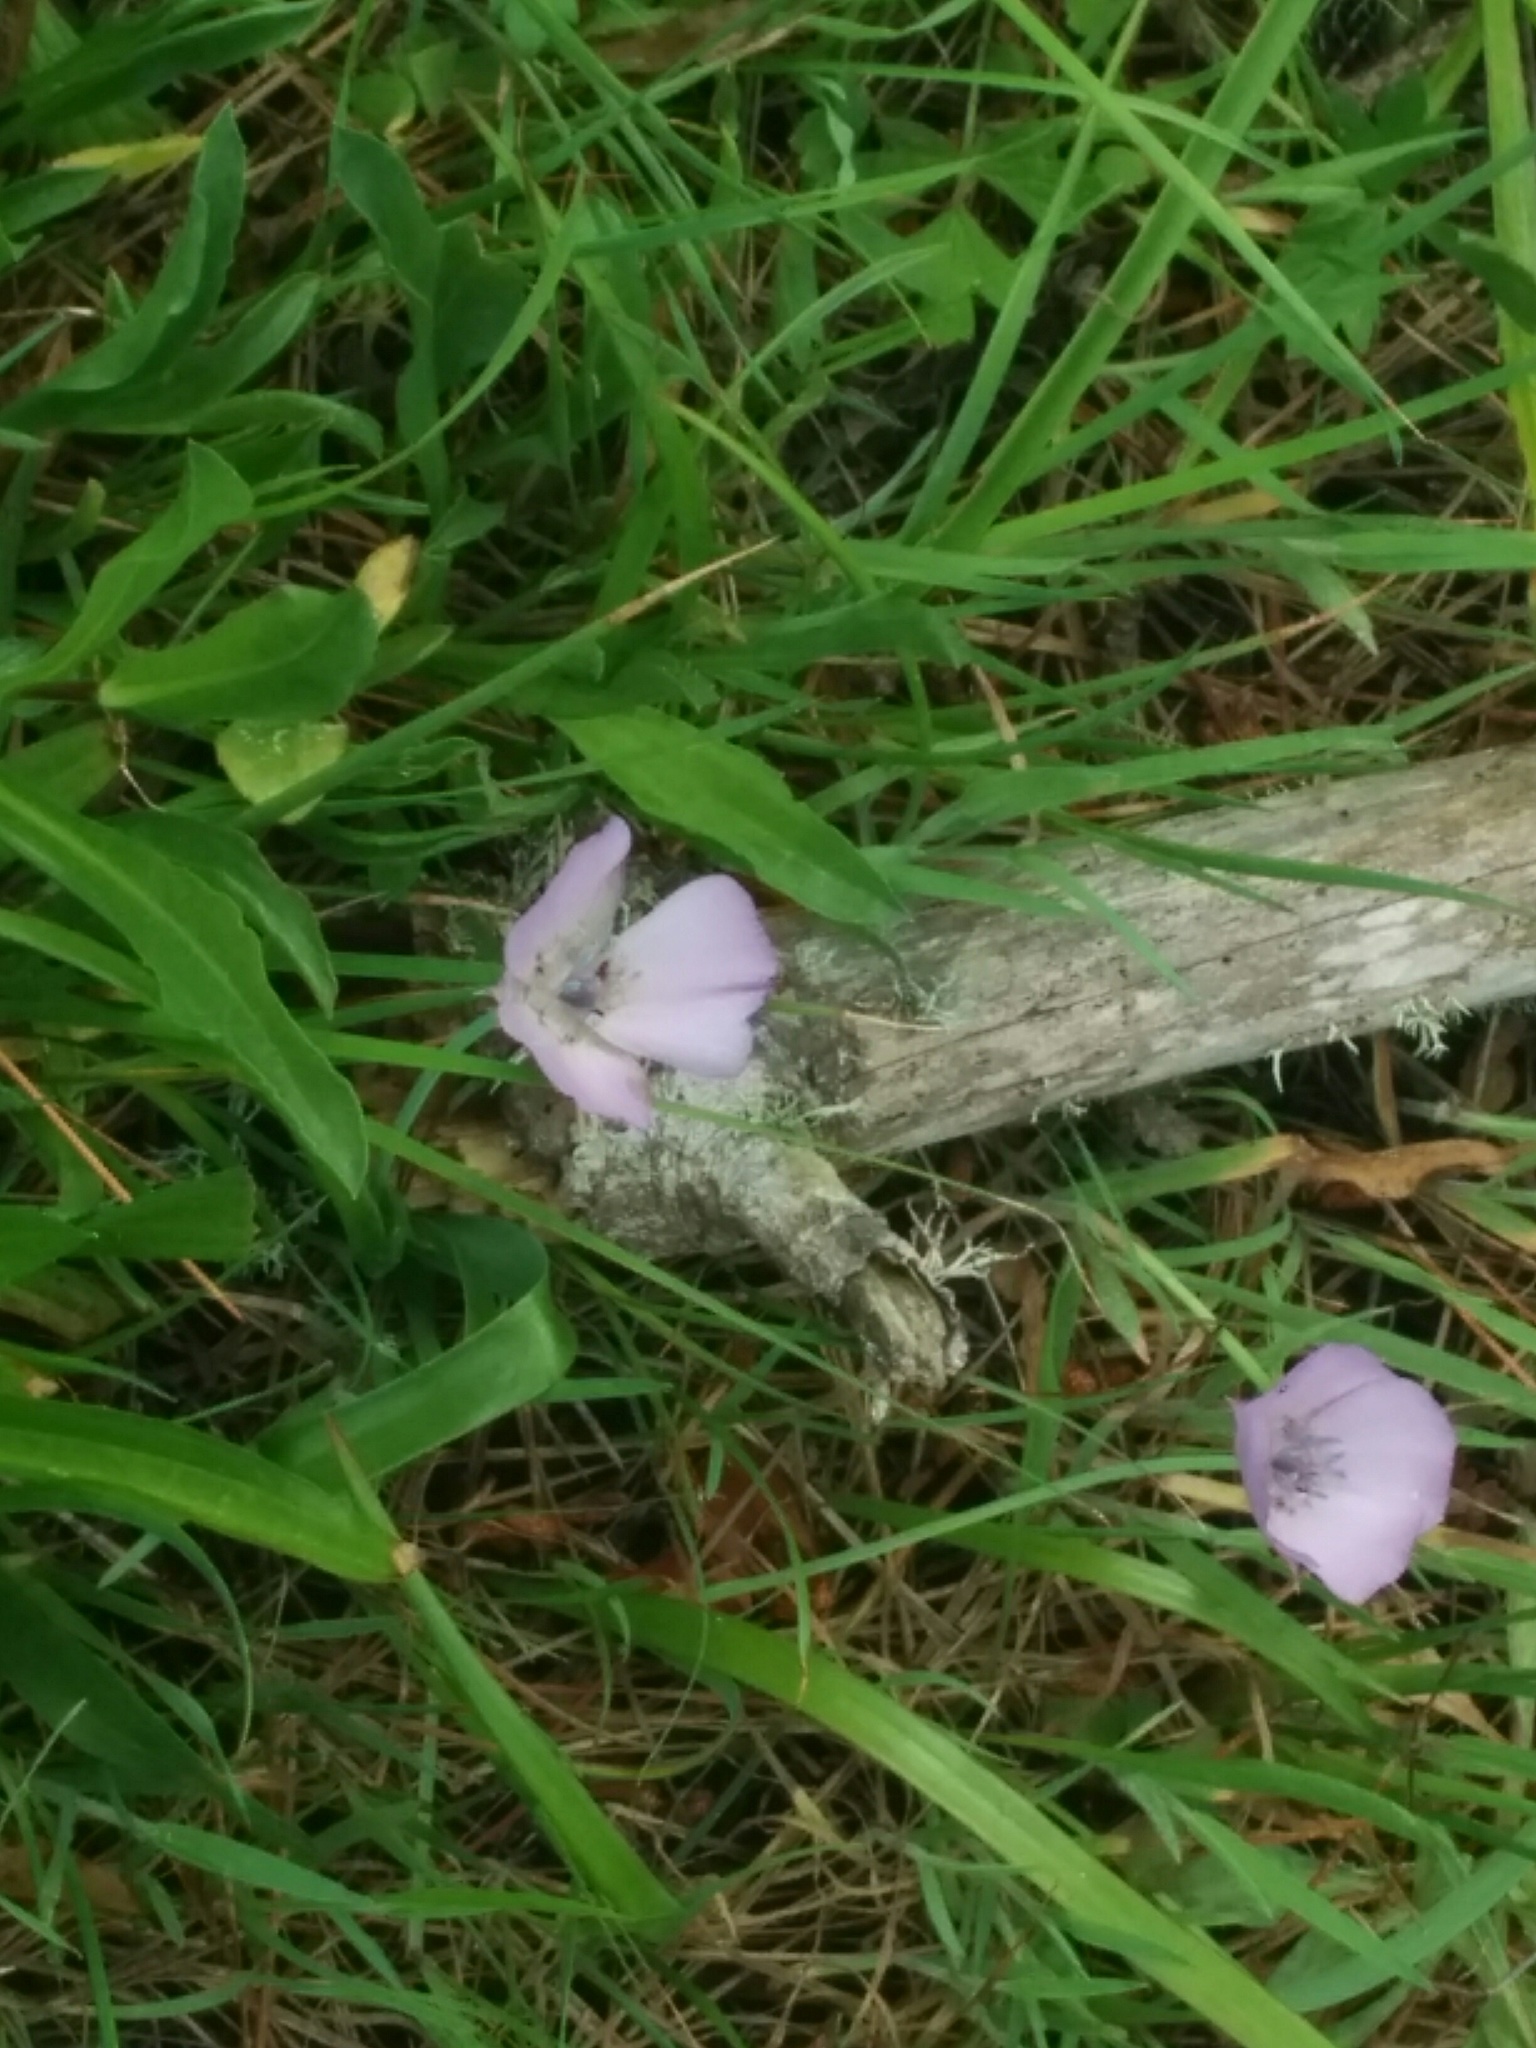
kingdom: Plantae
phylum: Tracheophyta
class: Liliopsida
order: Liliales
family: Liliaceae
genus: Calochortus
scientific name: Calochortus uniflorus
